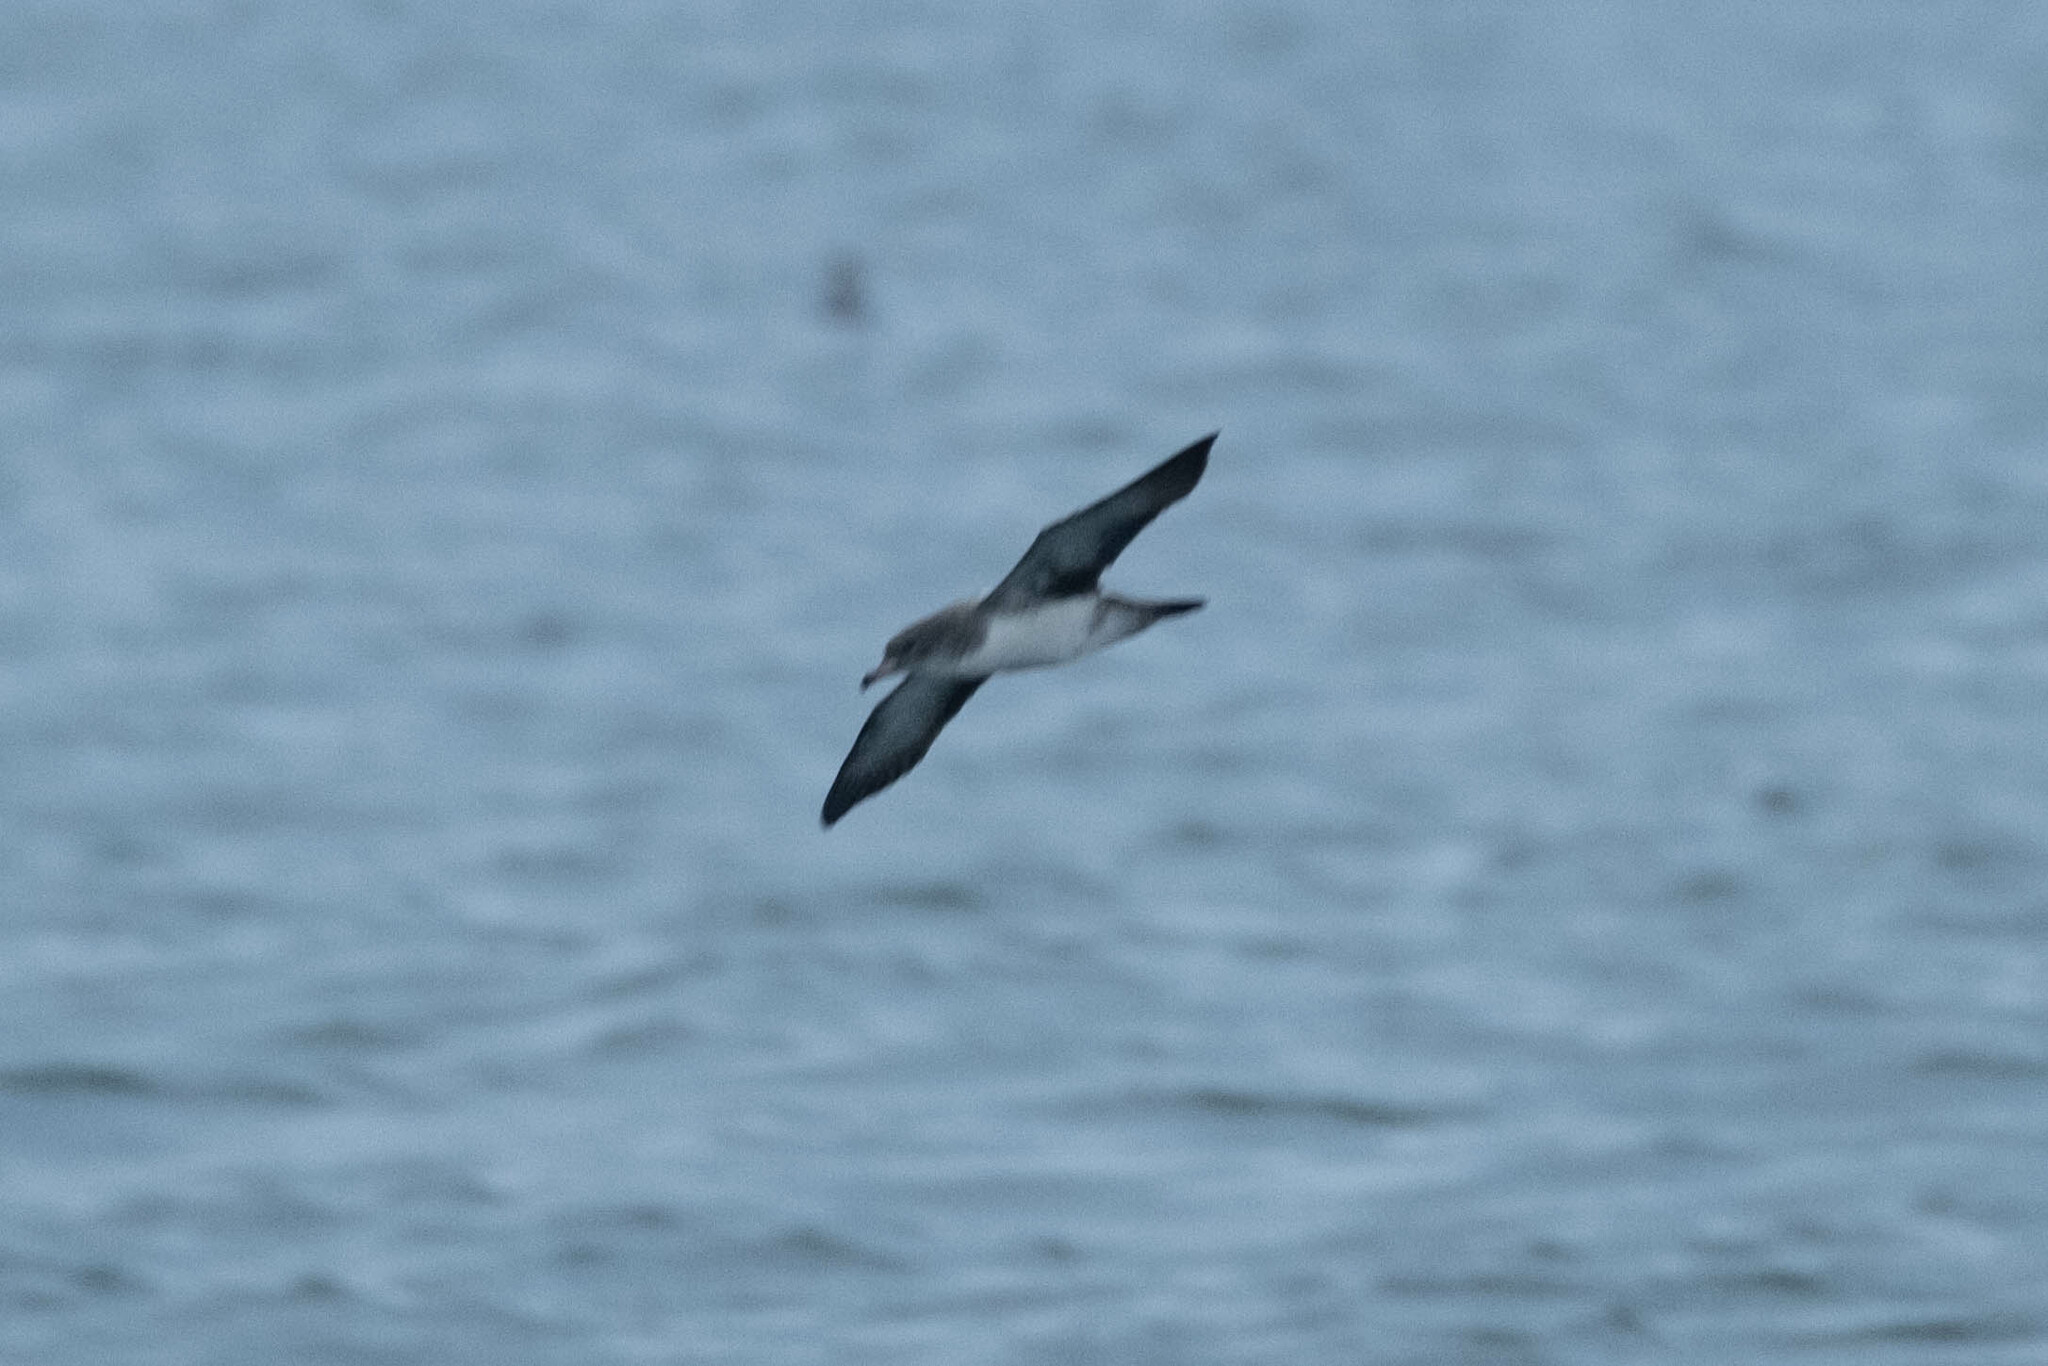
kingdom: Animalia
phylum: Chordata
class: Aves
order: Procellariiformes
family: Procellariidae
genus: Puffinus
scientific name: Puffinus opisthomelas
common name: Black-vented shearwater
